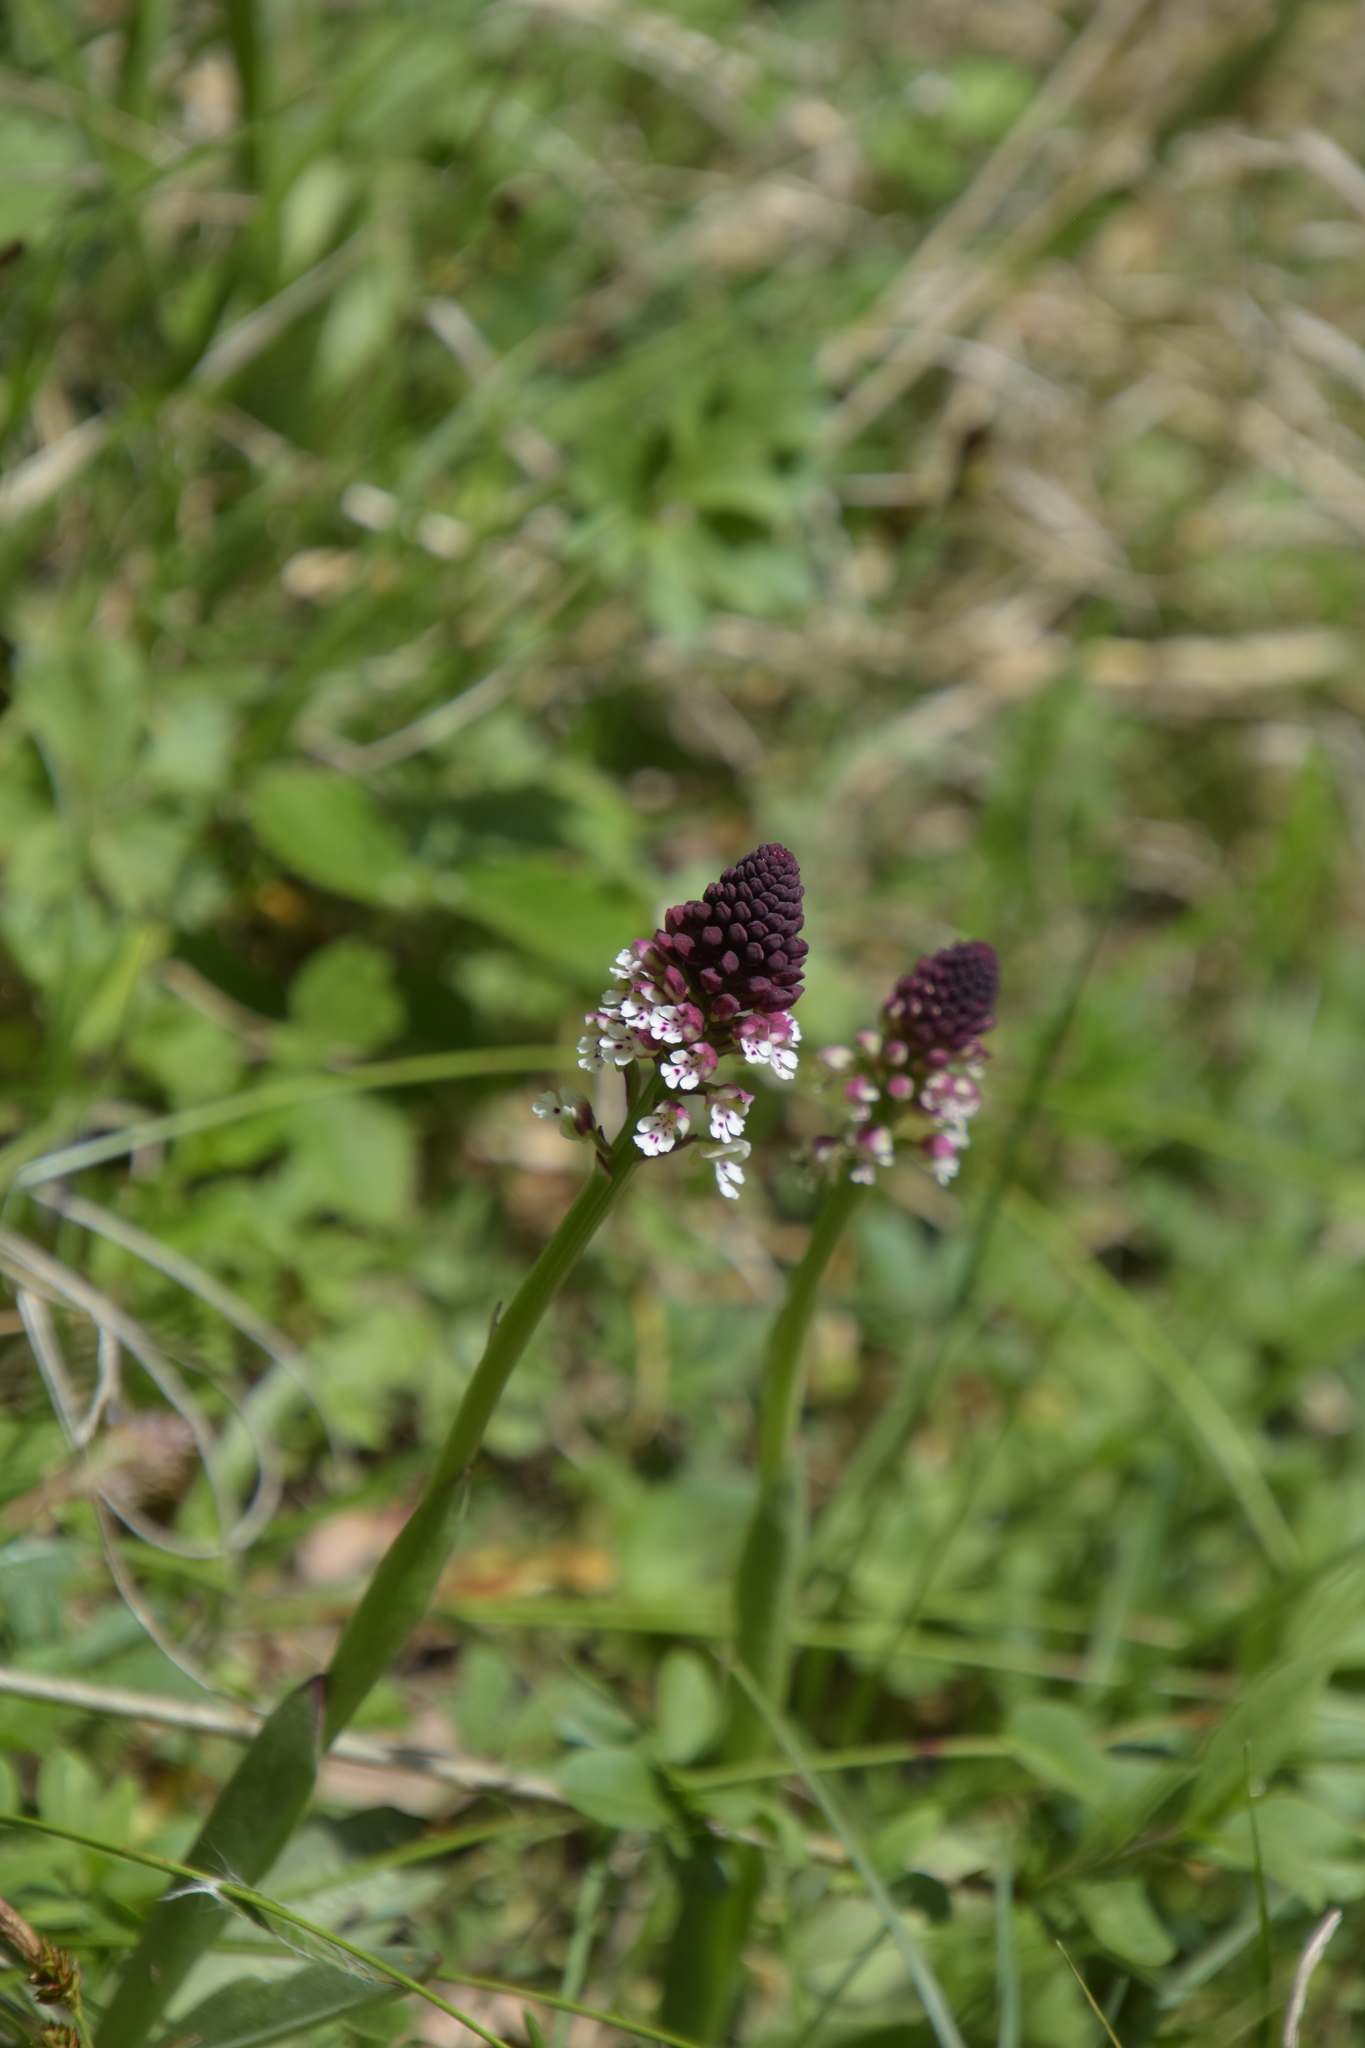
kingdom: Plantae
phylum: Tracheophyta
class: Liliopsida
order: Asparagales
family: Orchidaceae
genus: Neotinea
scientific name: Neotinea ustulata
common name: Burnt orchid
